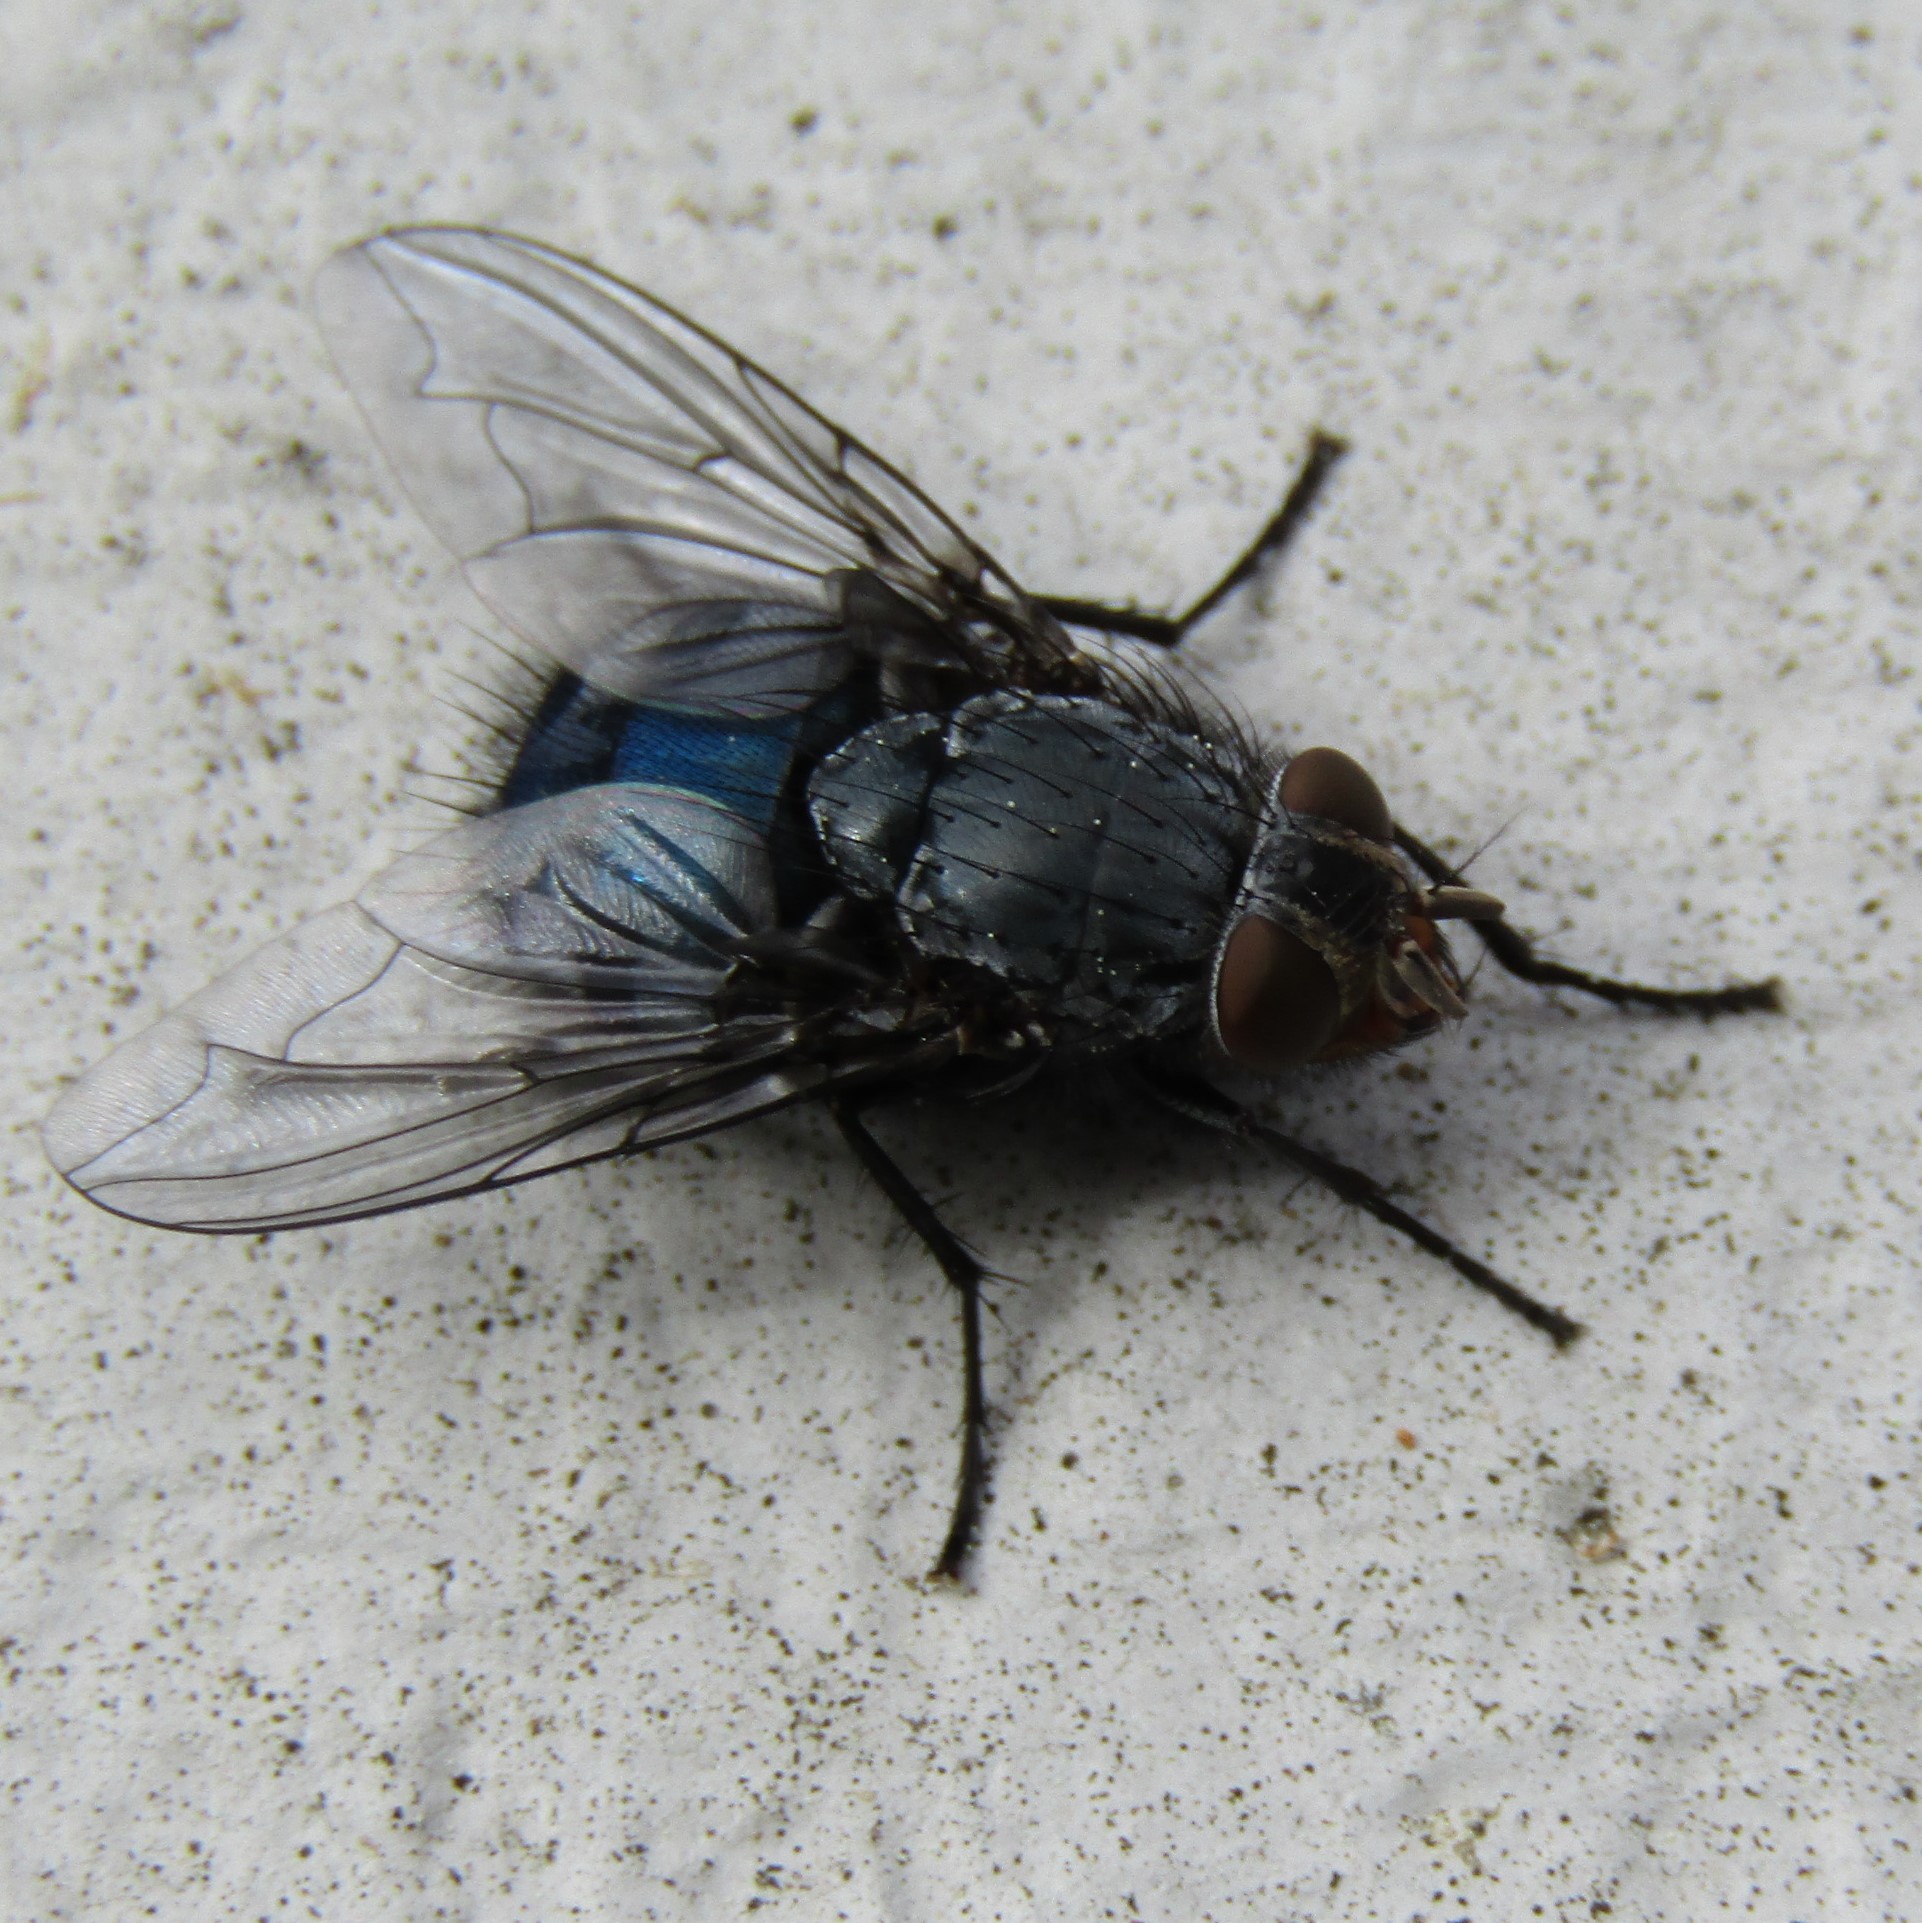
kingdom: Animalia
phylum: Arthropoda
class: Insecta
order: Diptera
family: Calliphoridae
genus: Calliphora
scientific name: Calliphora vicina
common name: Common blow flie
